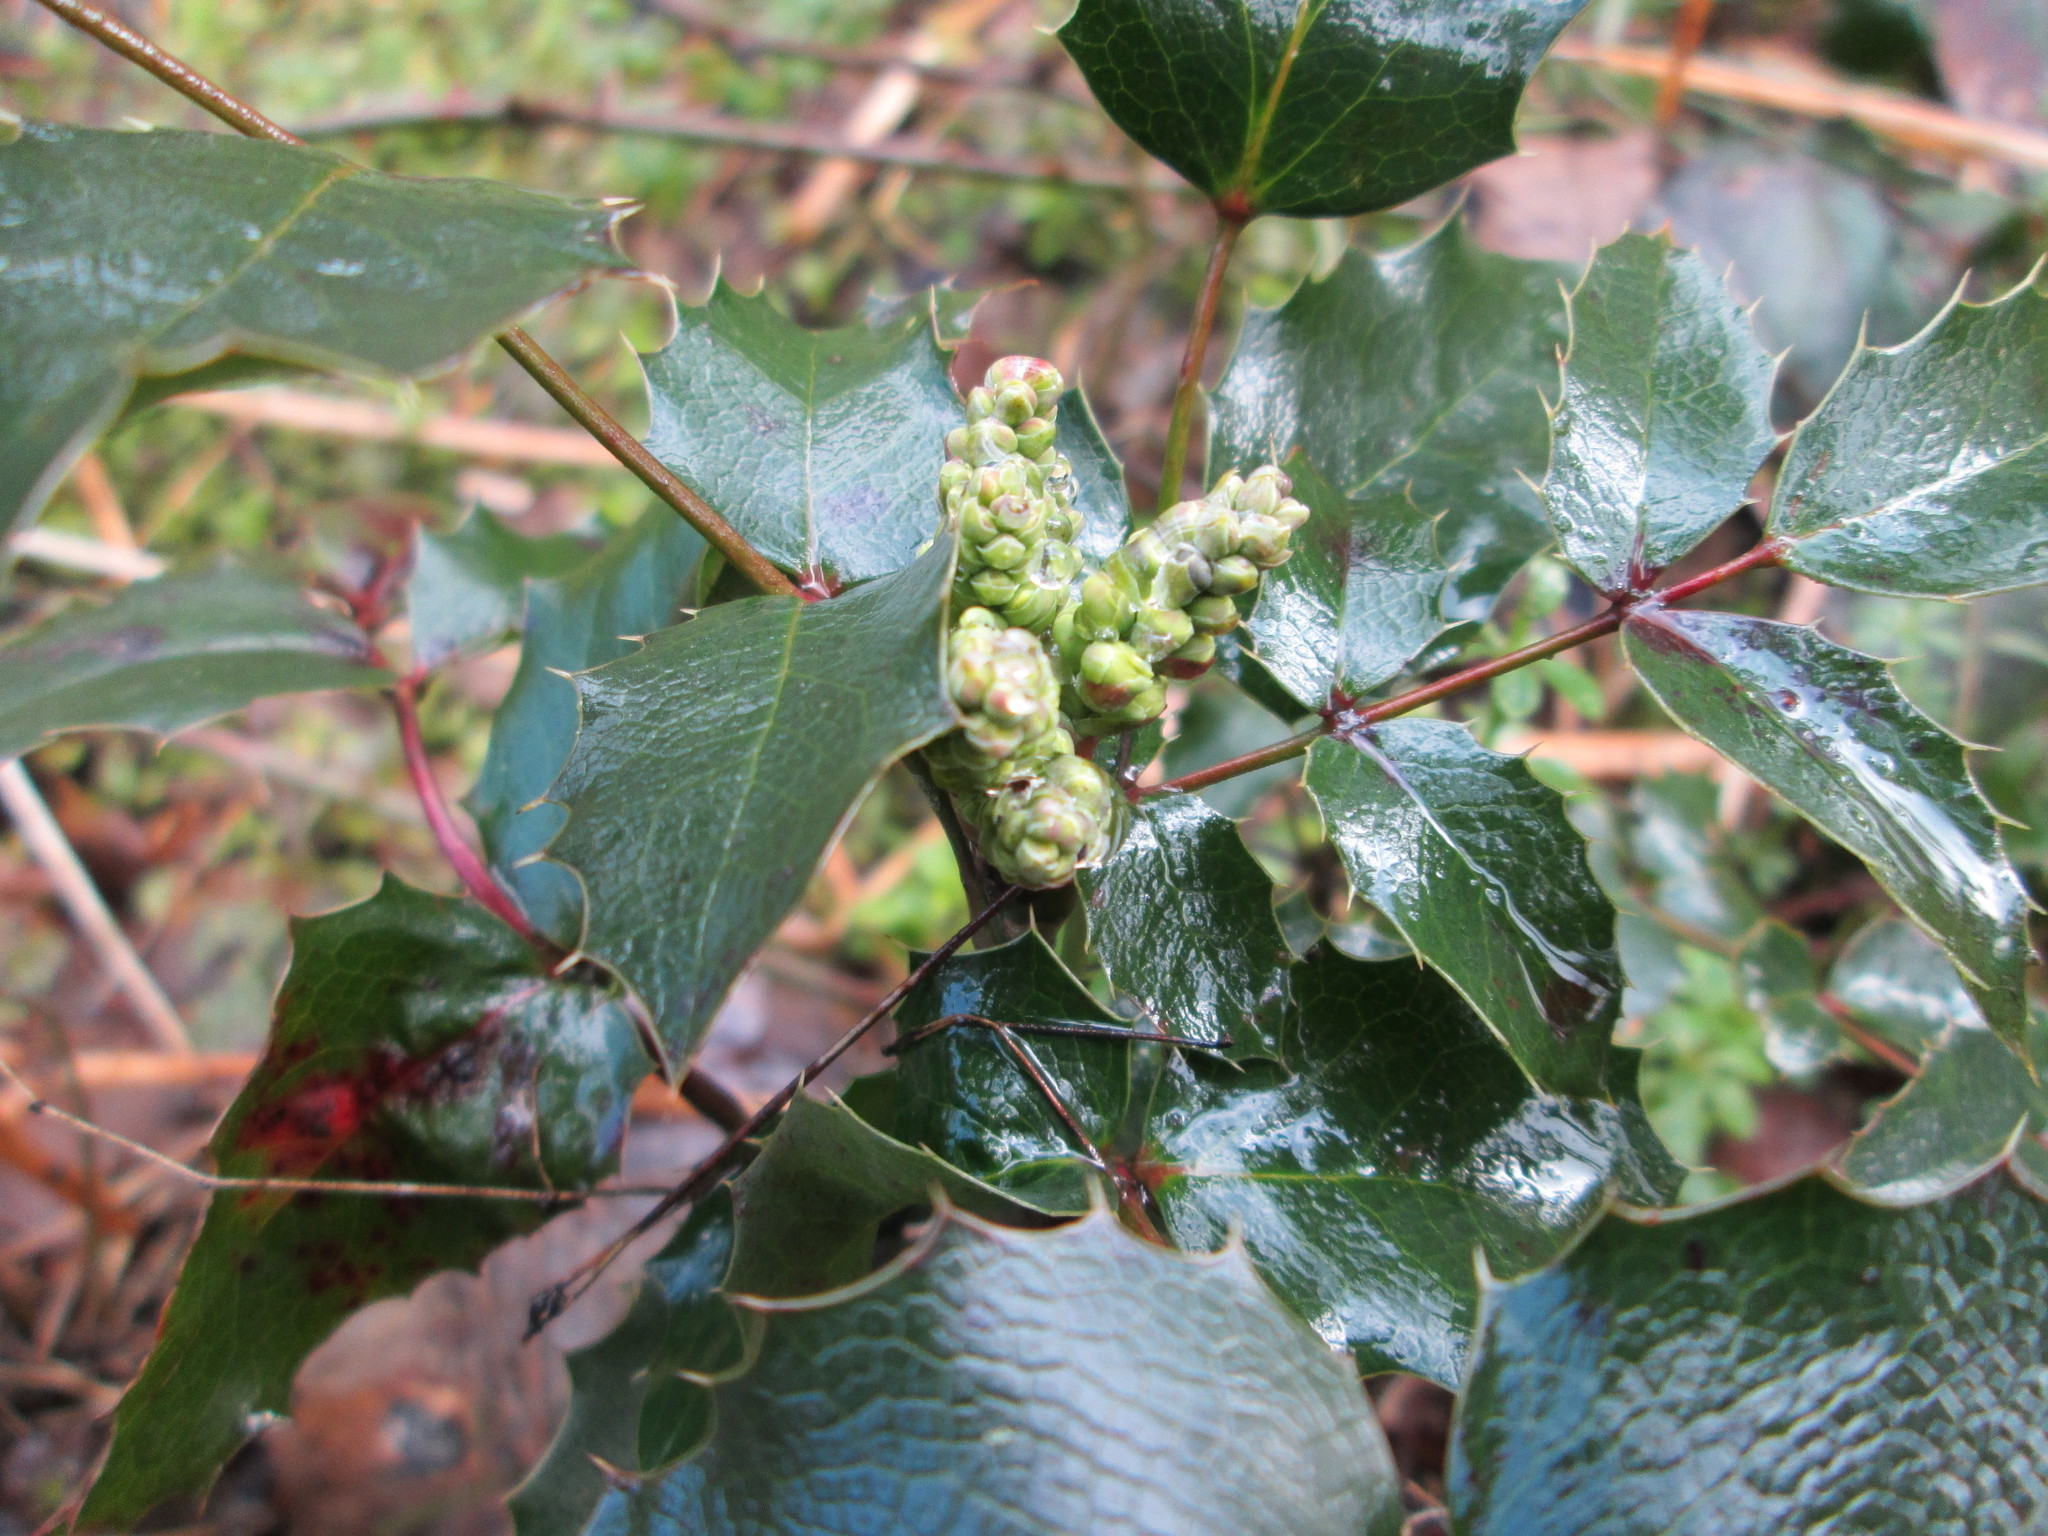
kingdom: Plantae
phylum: Tracheophyta
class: Magnoliopsida
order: Ranunculales
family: Berberidaceae
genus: Mahonia
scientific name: Mahonia aquifolium
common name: Oregon-grape
